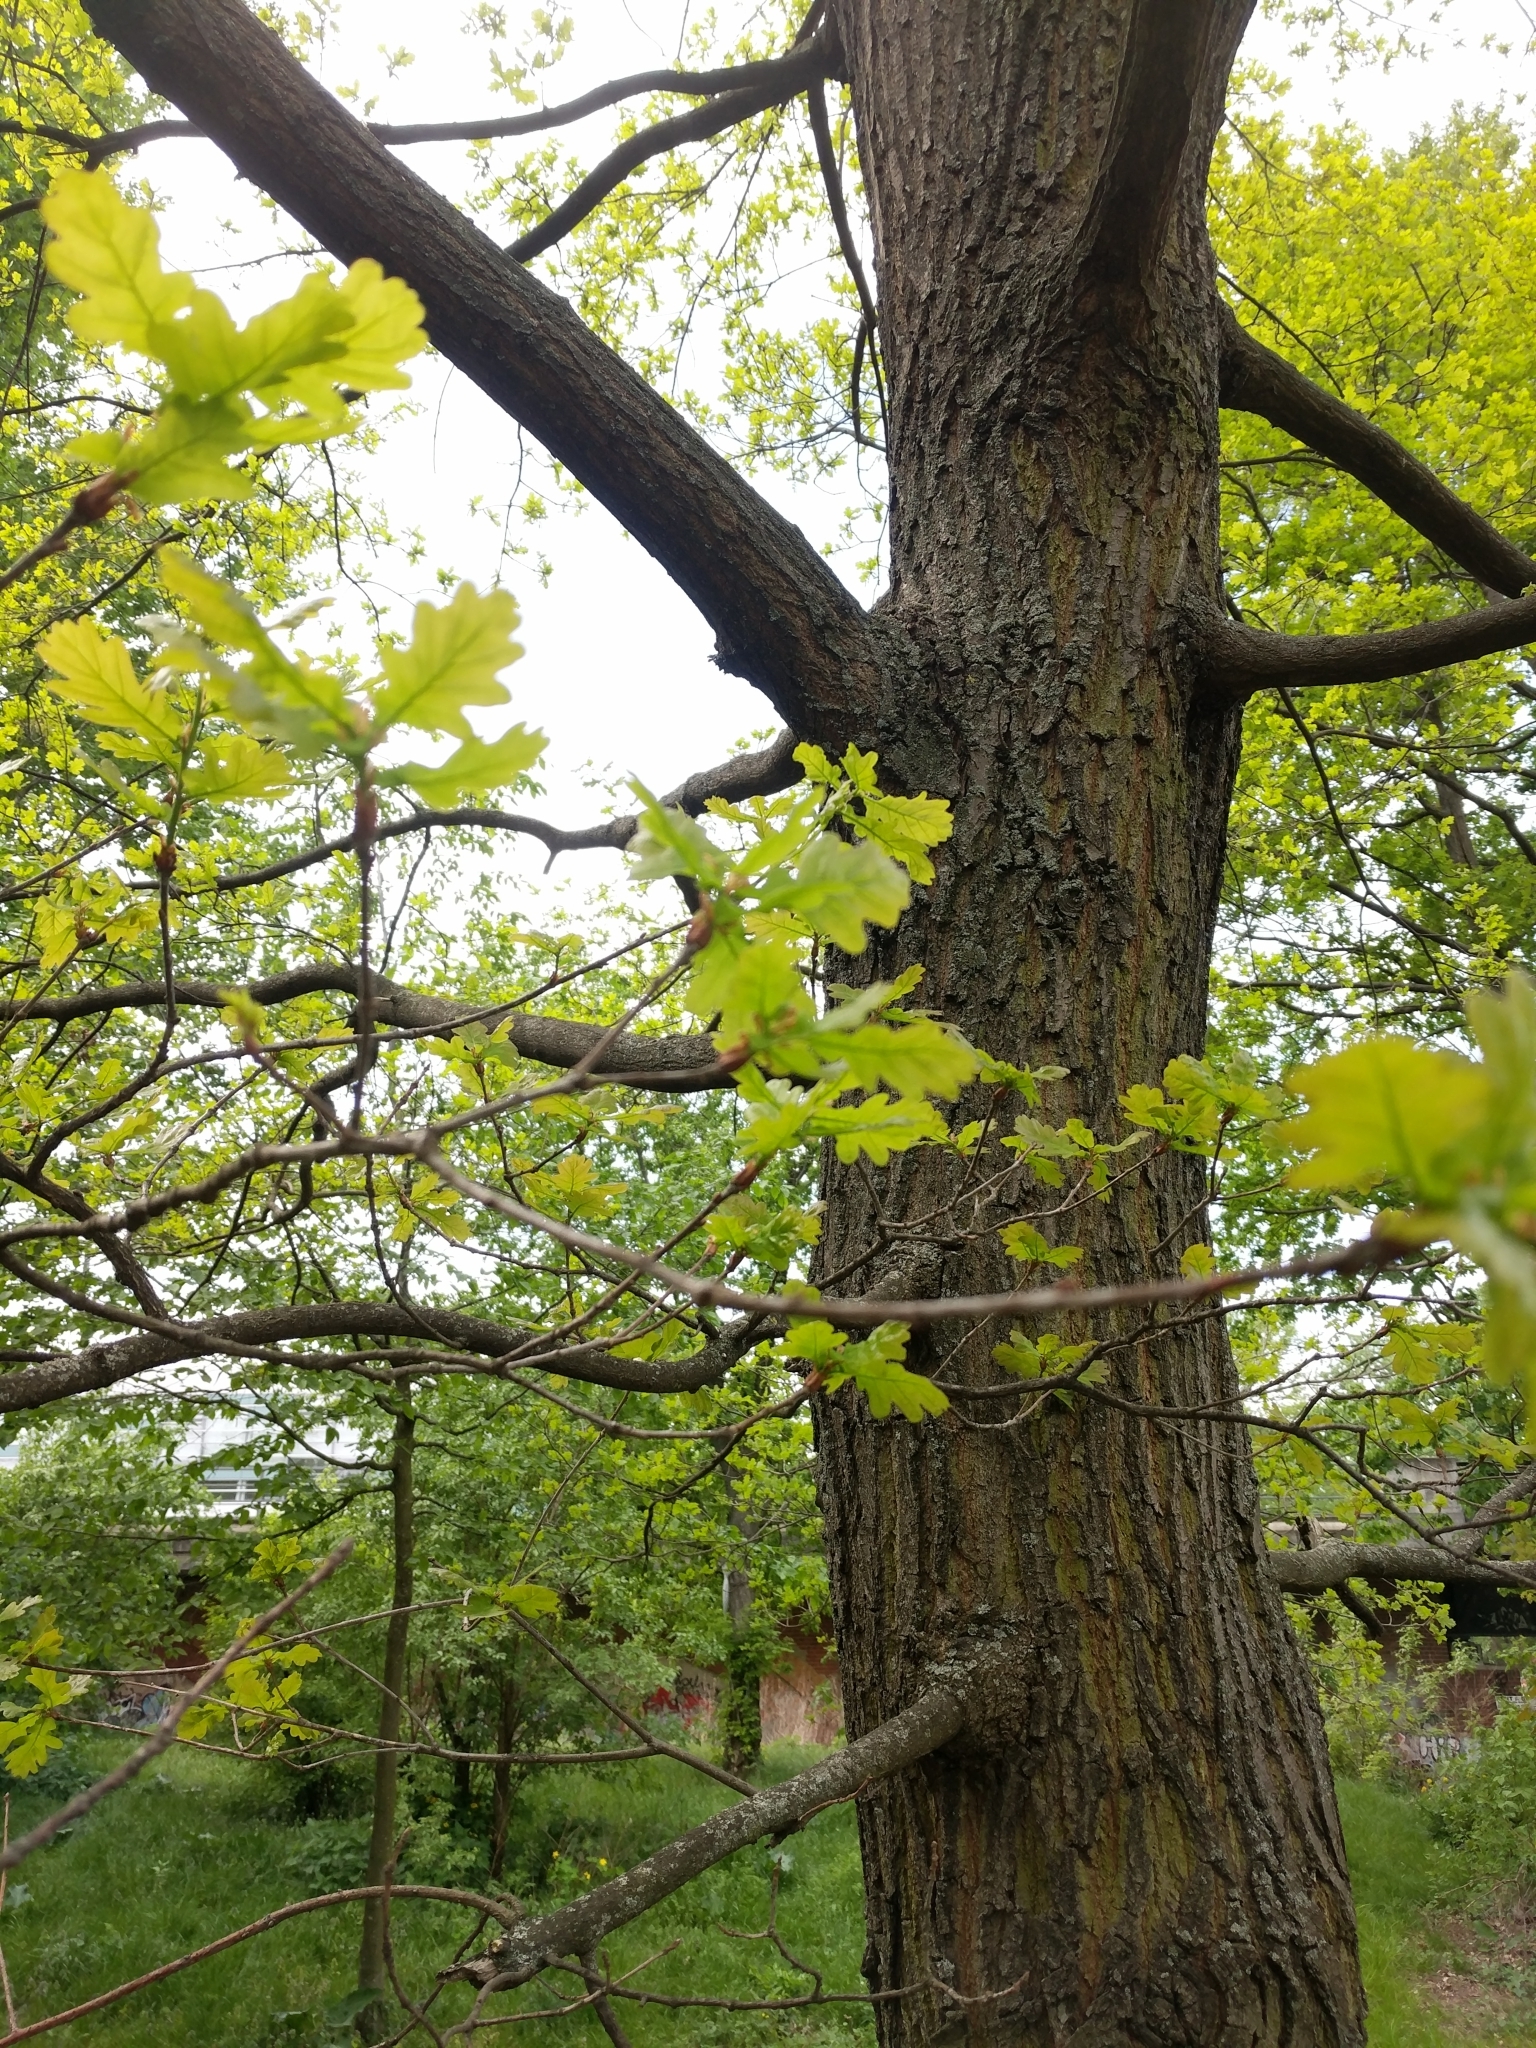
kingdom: Plantae
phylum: Tracheophyta
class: Magnoliopsida
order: Fagales
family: Fagaceae
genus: Quercus
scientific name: Quercus robur
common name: Pedunculate oak
